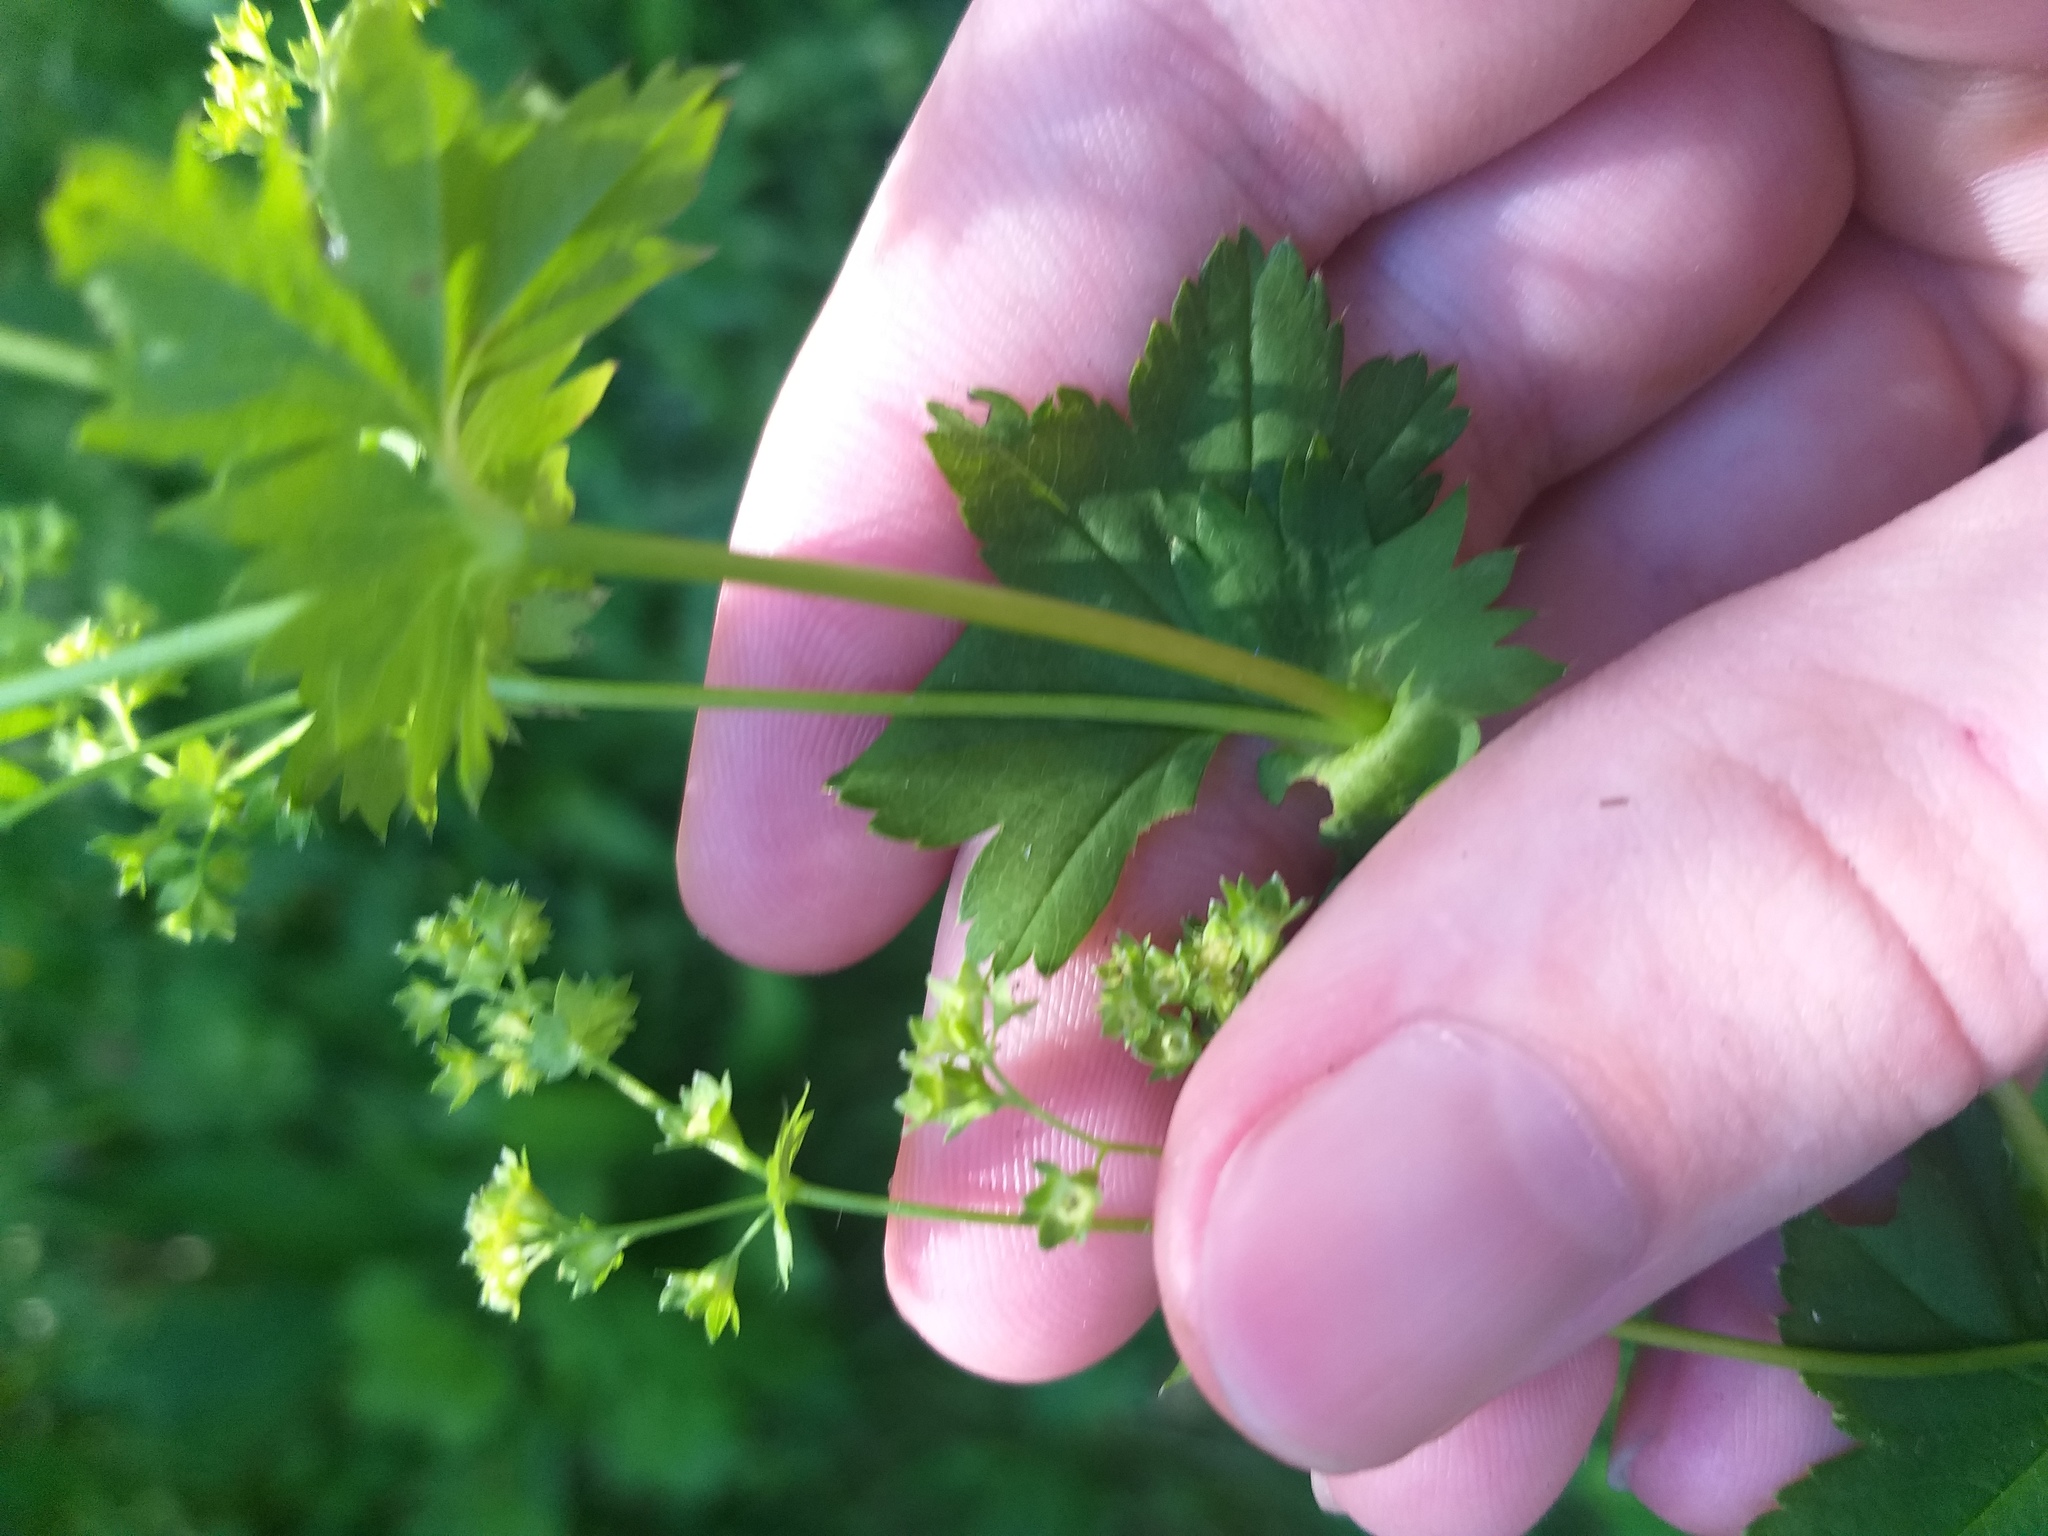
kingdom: Plantae
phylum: Tracheophyta
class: Magnoliopsida
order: Rosales
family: Rosaceae
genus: Alchemilla
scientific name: Alchemilla baltica
